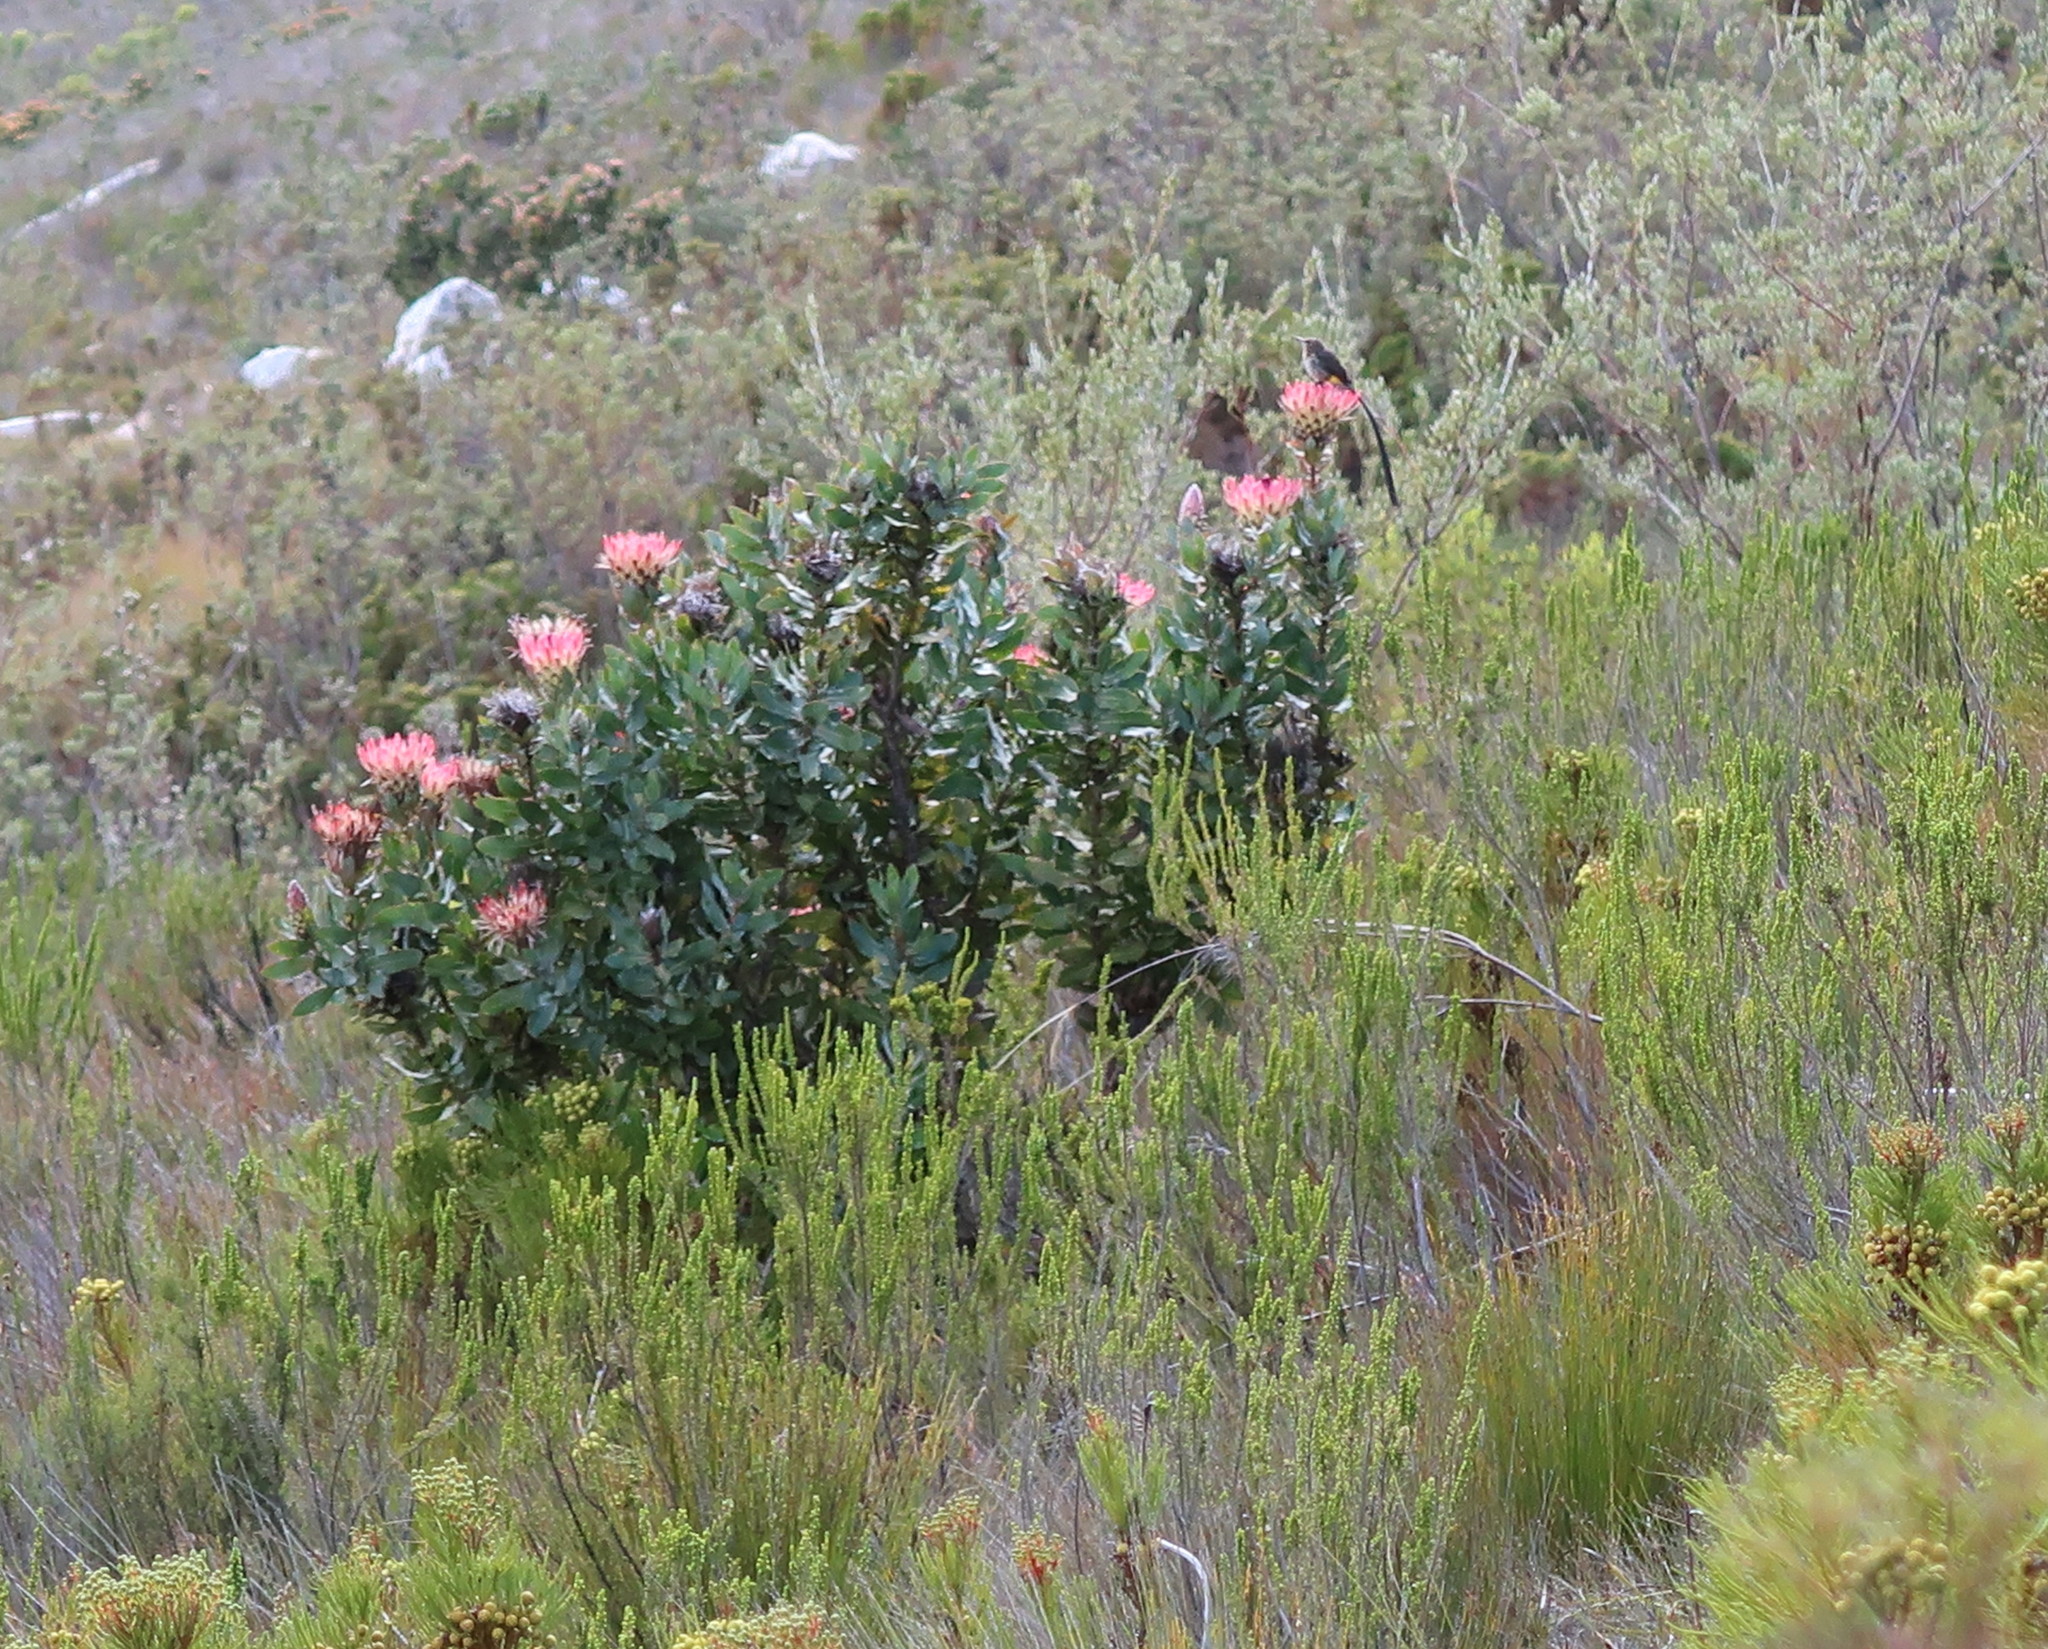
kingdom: Plantae
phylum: Tracheophyta
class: Magnoliopsida
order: Proteales
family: Proteaceae
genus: Protea
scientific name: Protea eximia
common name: Broad-leaved sugarbush
